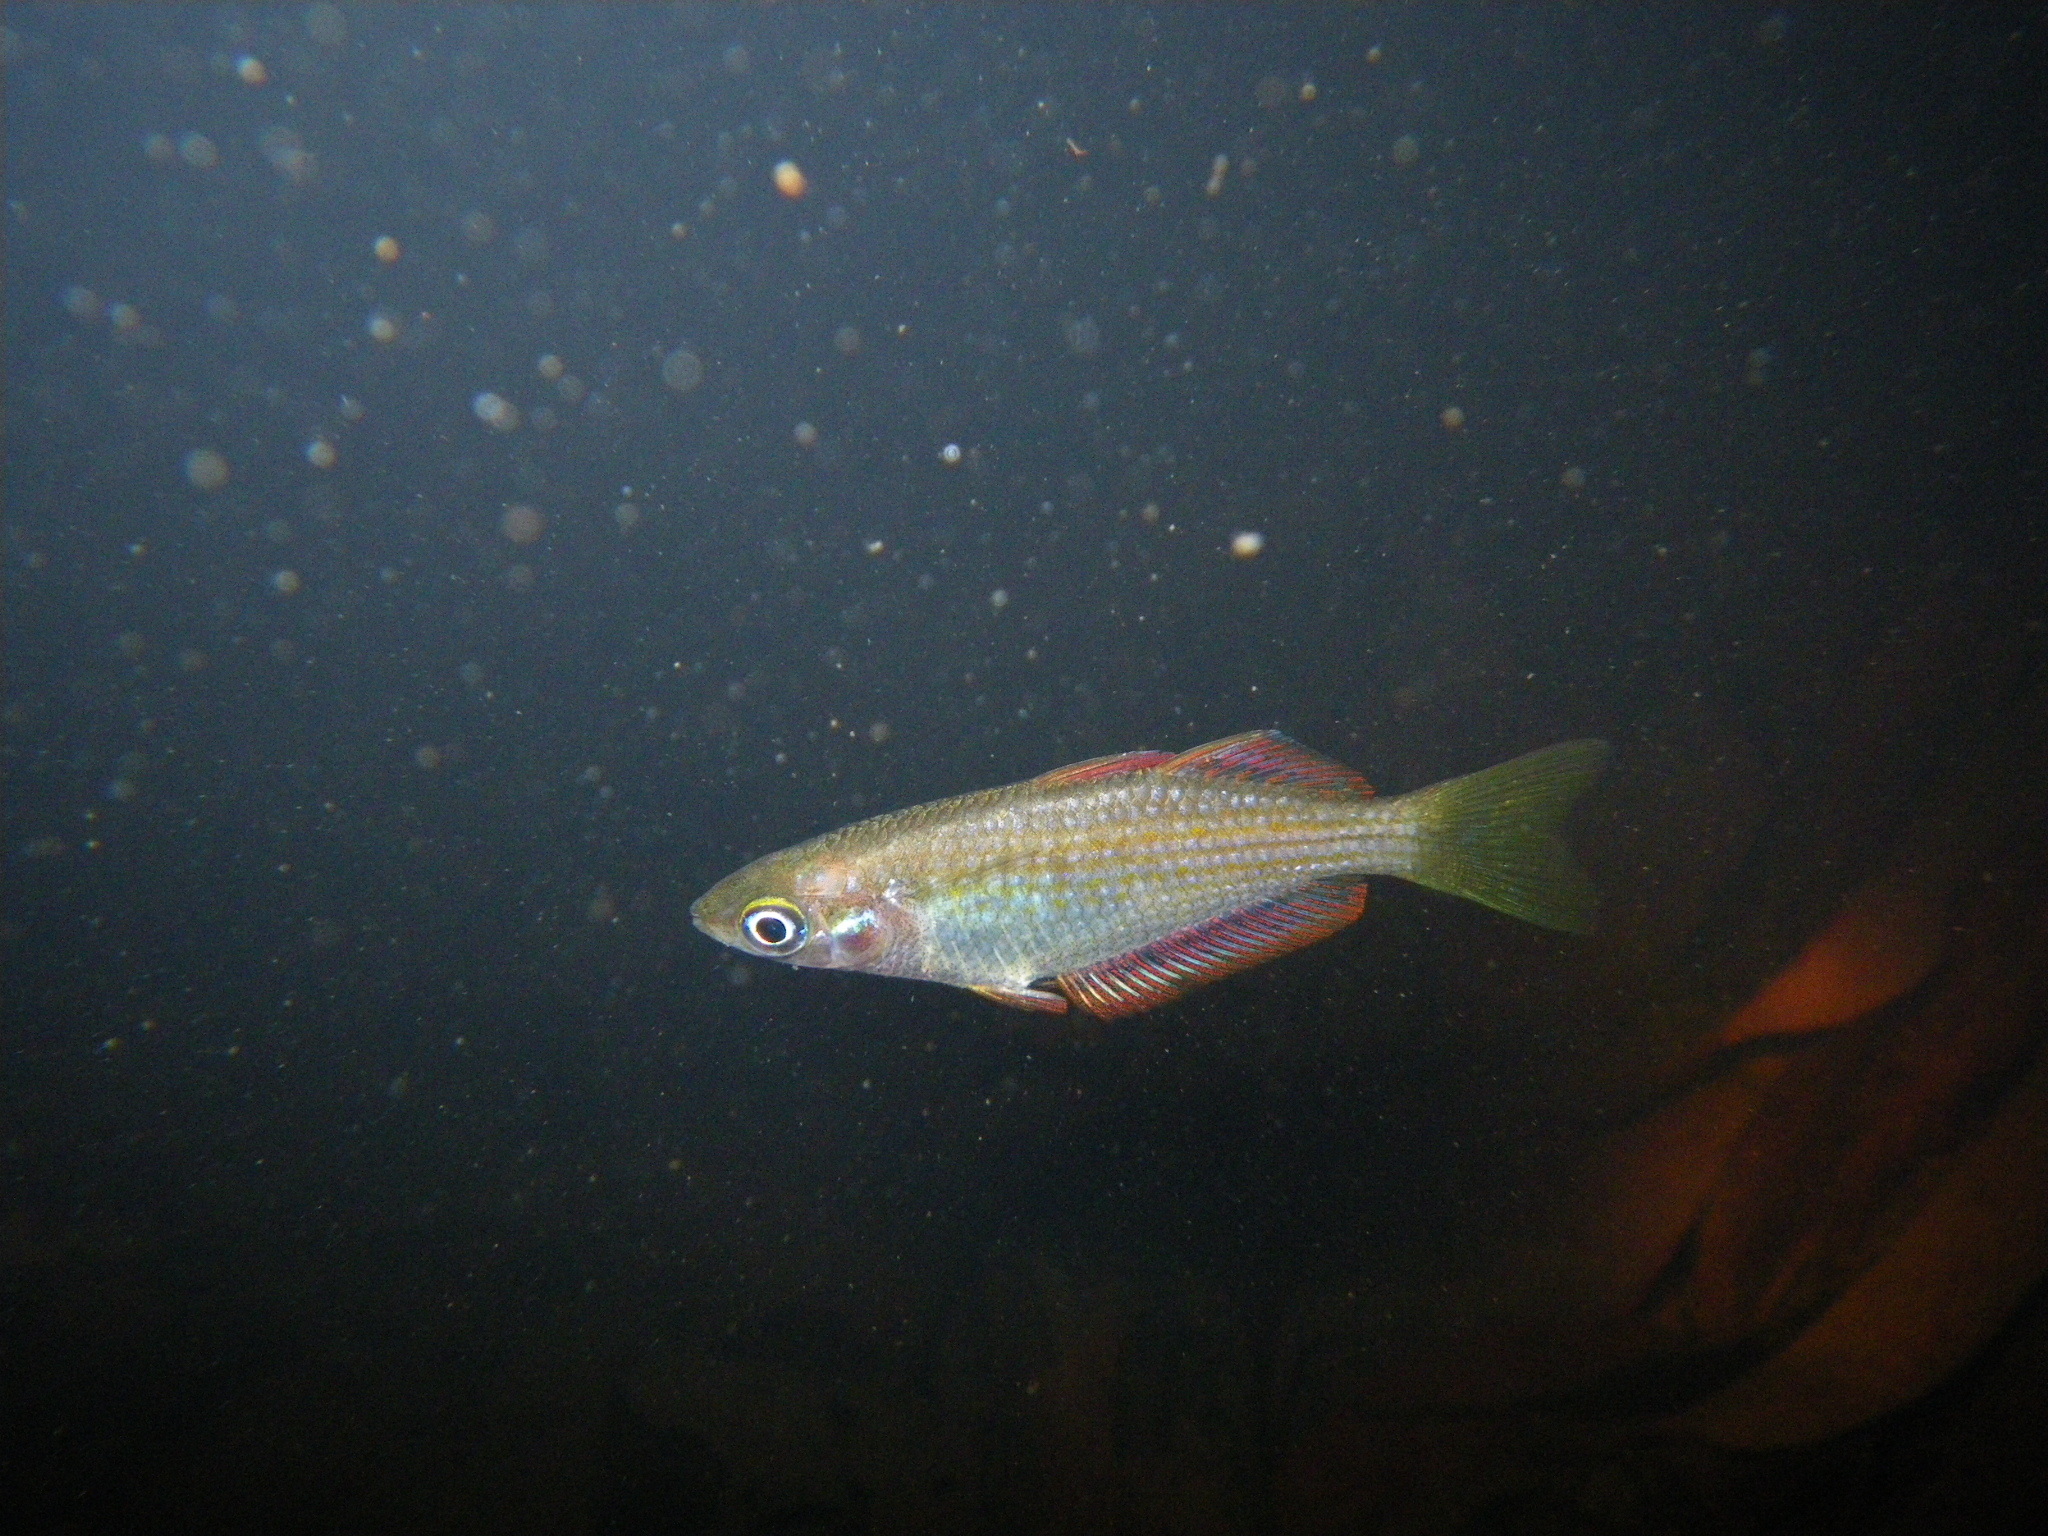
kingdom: Animalia
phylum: Chordata
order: Atheriniformes
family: Melanotaeniidae
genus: Melanotaenia
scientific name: Melanotaenia splendida
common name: Checkered rainbowfish
